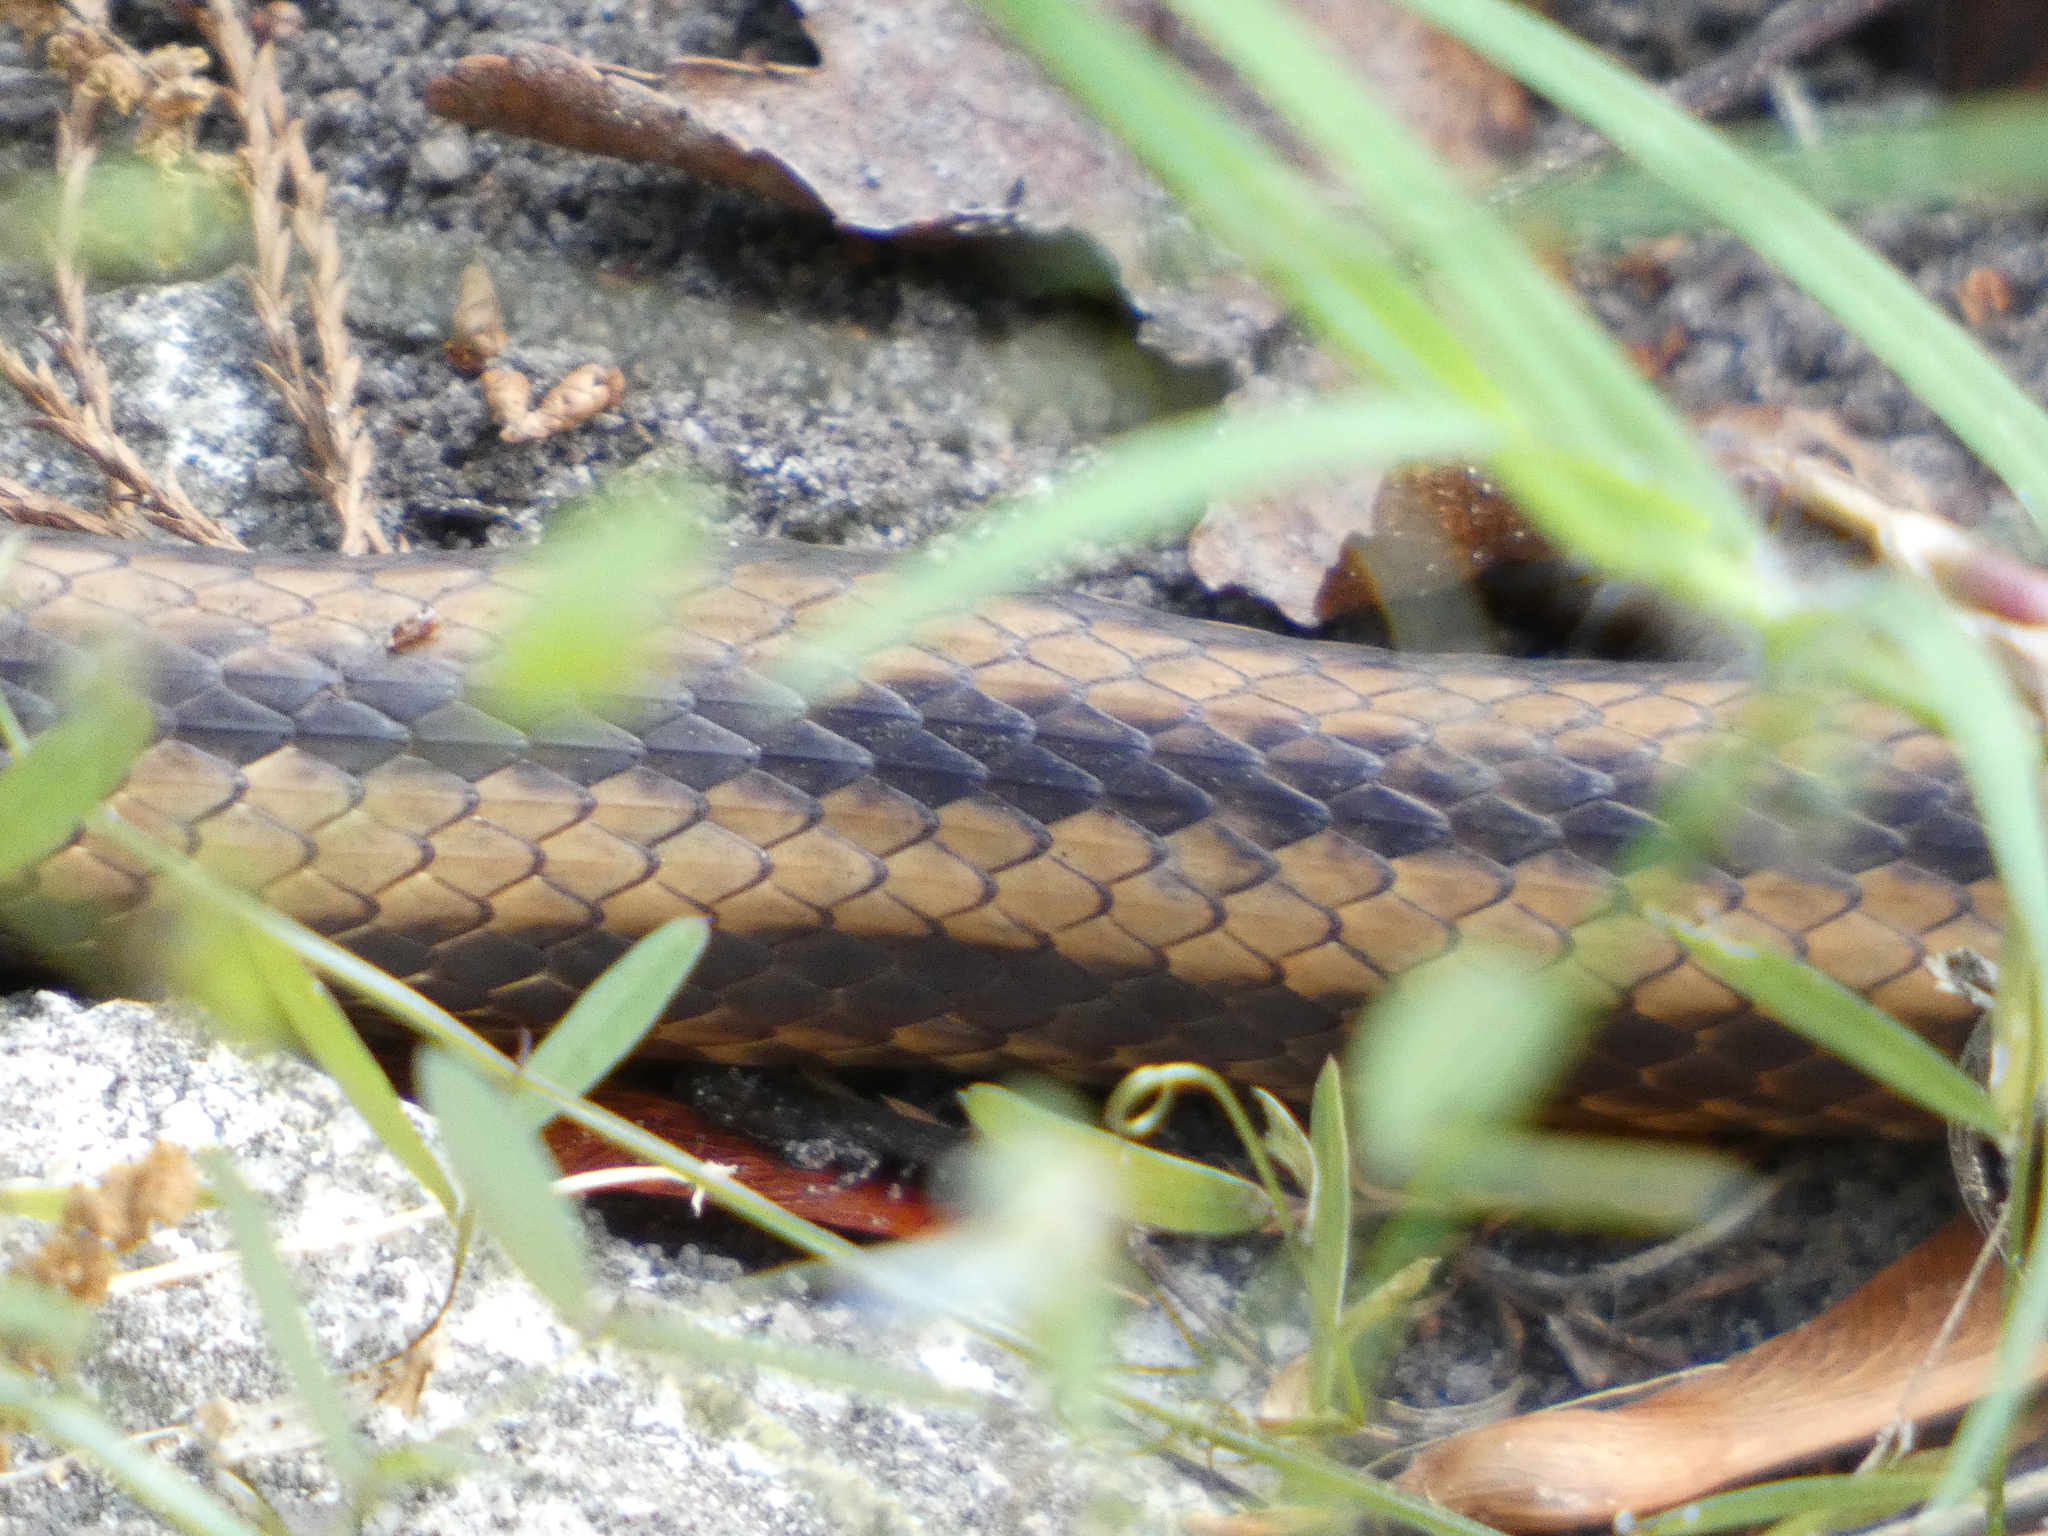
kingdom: Animalia
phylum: Chordata
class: Squamata
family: Colubridae
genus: Pantherophis
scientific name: Pantherophis alleghaniensis
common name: Eastern rat snake
